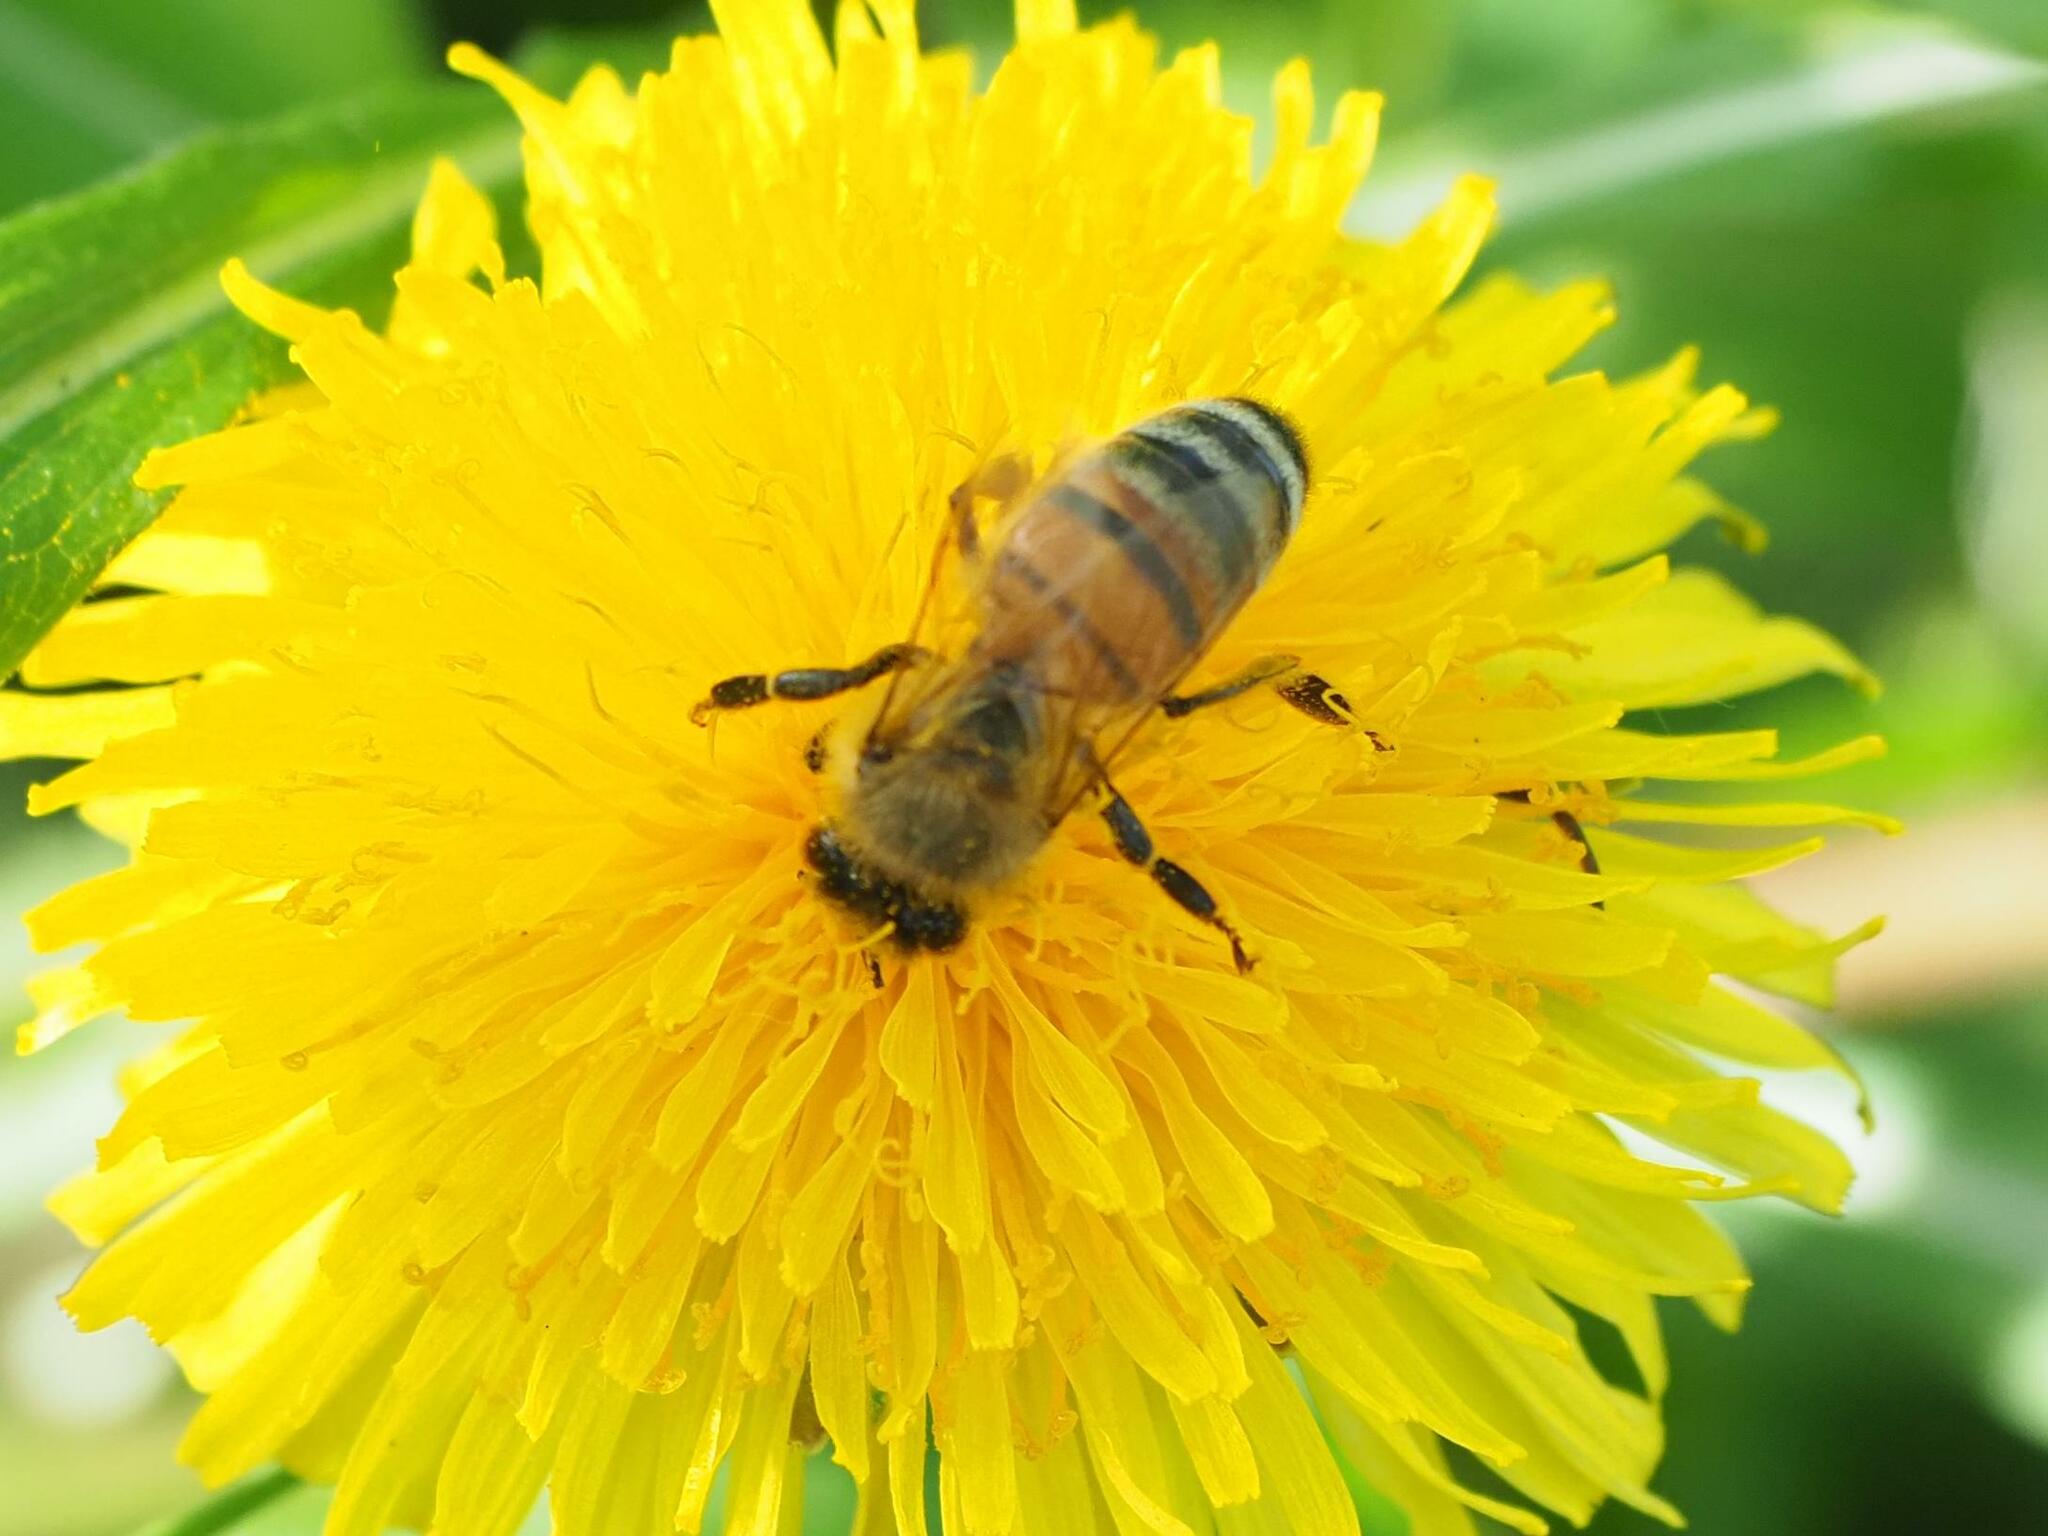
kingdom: Animalia
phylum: Arthropoda
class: Insecta
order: Hymenoptera
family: Apidae
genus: Apis
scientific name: Apis mellifera
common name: Honey bee
